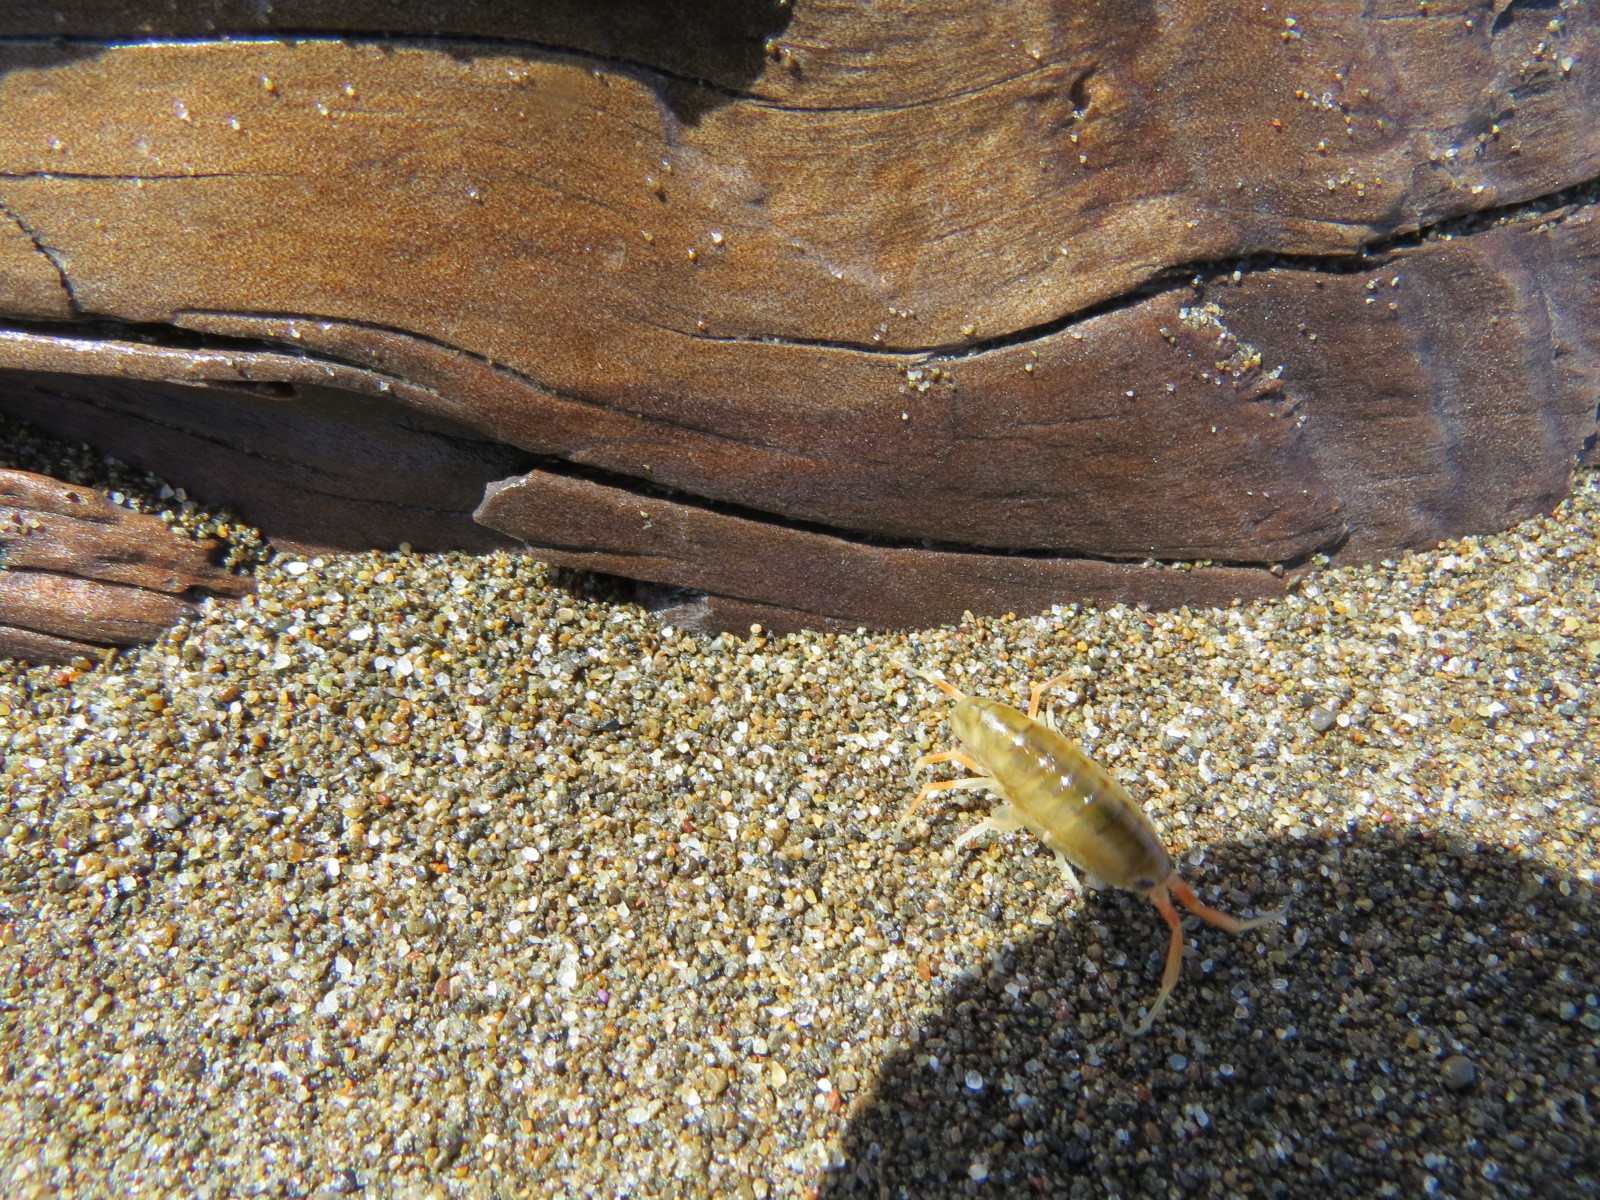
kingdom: Animalia
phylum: Arthropoda
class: Malacostraca
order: Amphipoda
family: Talitridae
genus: Megalorchestia
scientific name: Megalorchestia californiana
